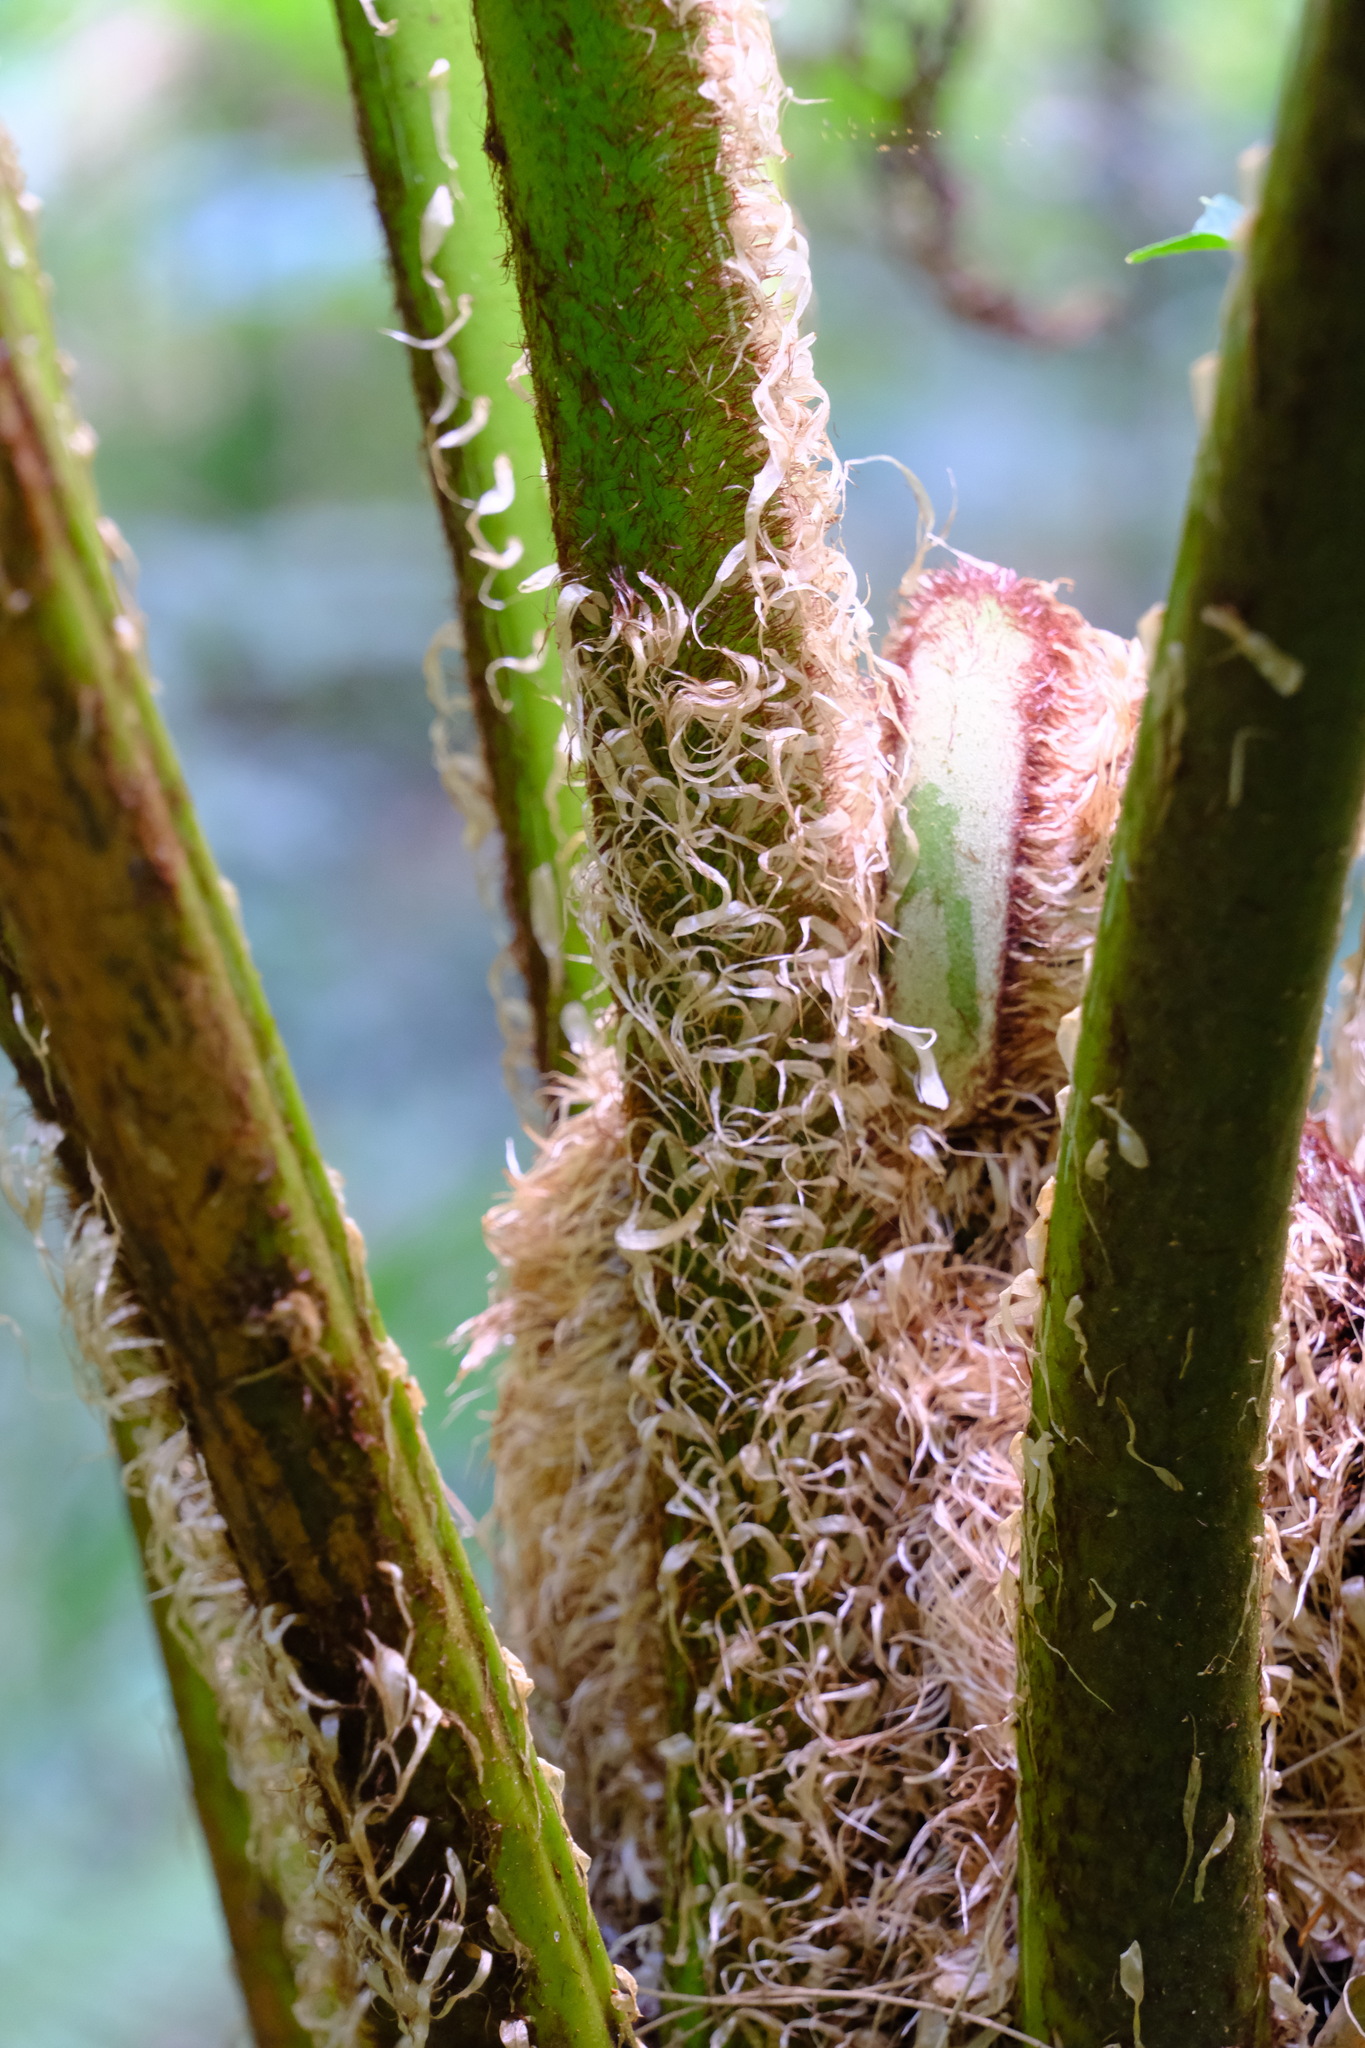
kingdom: Plantae
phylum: Tracheophyta
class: Polypodiopsida
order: Cyatheales
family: Cyatheaceae
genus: Sphaeropteris
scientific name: Sphaeropteris cooperi
